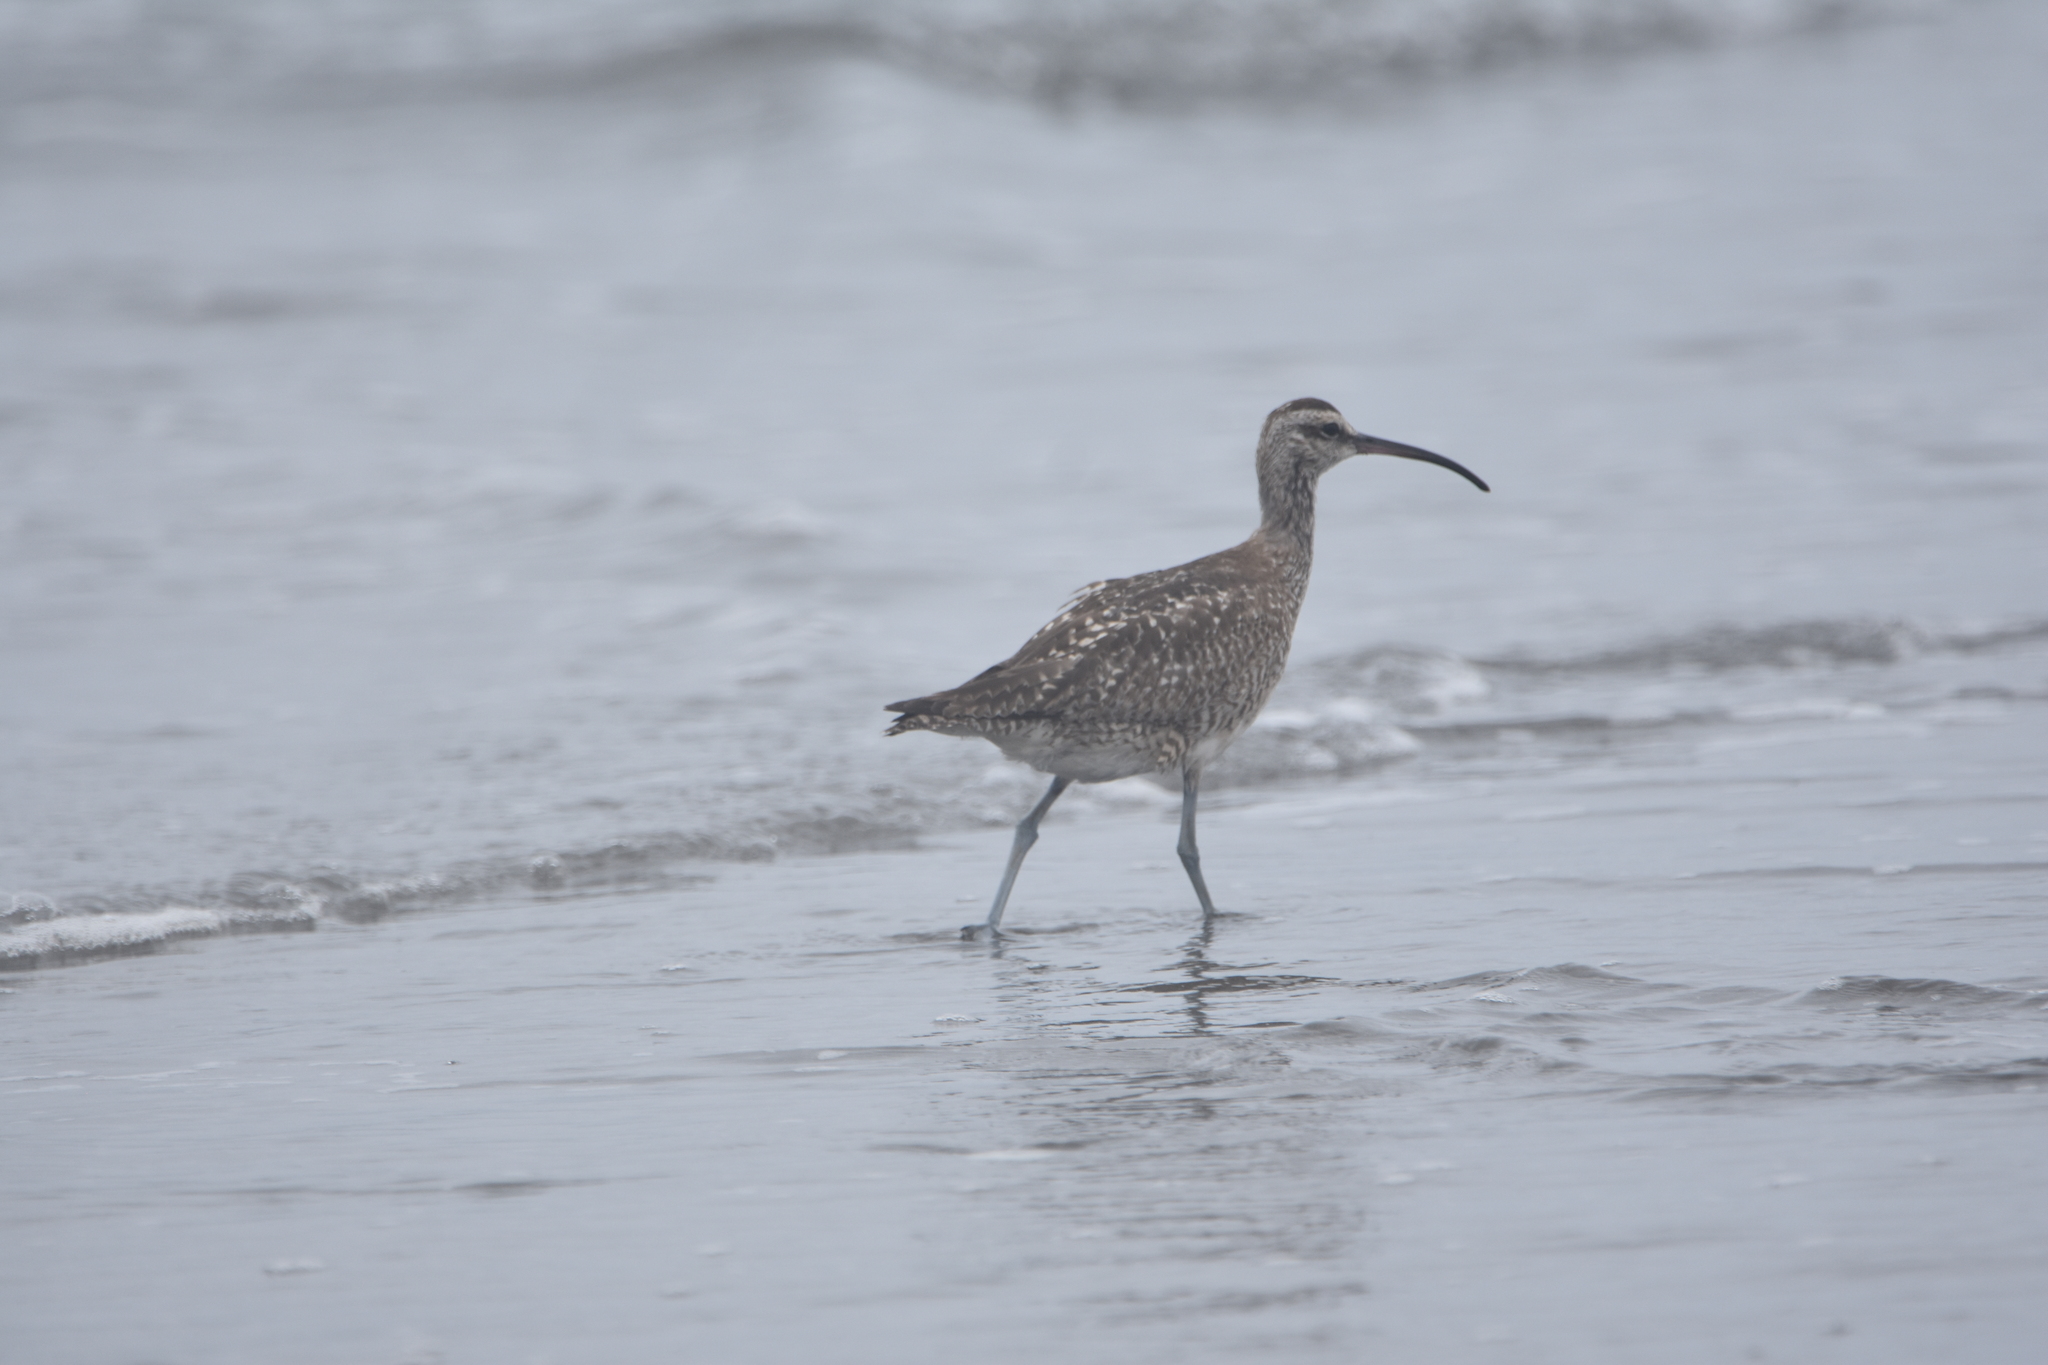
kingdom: Animalia
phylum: Chordata
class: Aves
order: Charadriiformes
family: Scolopacidae
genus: Numenius
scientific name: Numenius phaeopus
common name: Whimbrel
